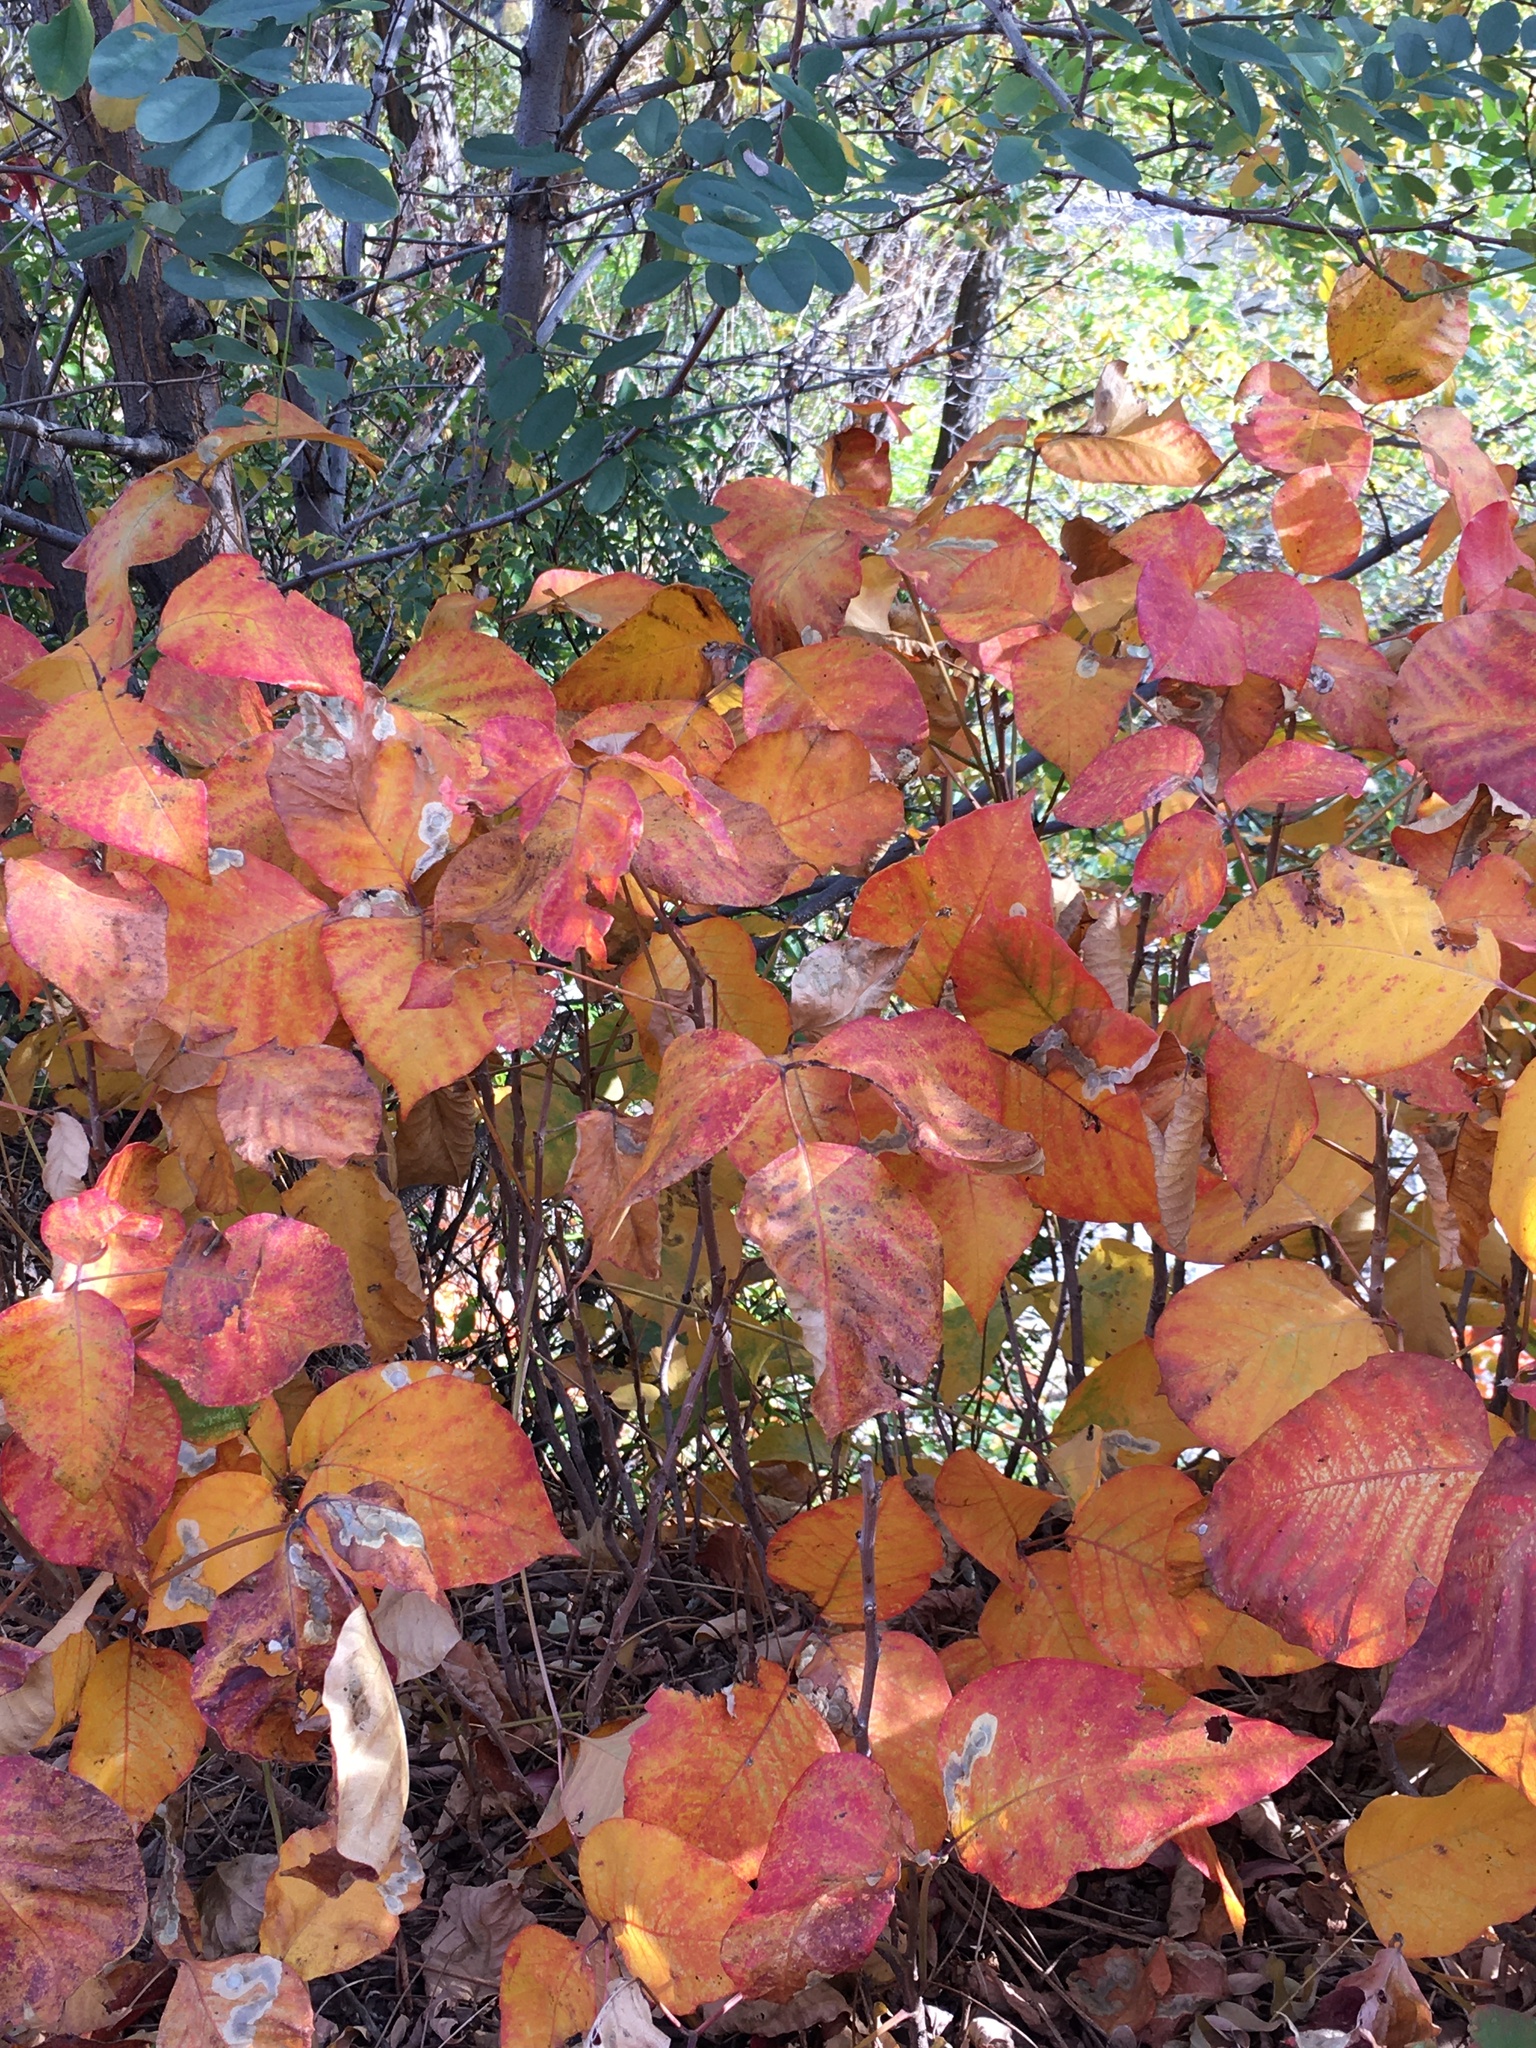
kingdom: Plantae
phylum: Tracheophyta
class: Magnoliopsida
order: Sapindales
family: Anacardiaceae
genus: Toxicodendron
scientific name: Toxicodendron rydbergii
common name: Rydberg's poison-ivy
